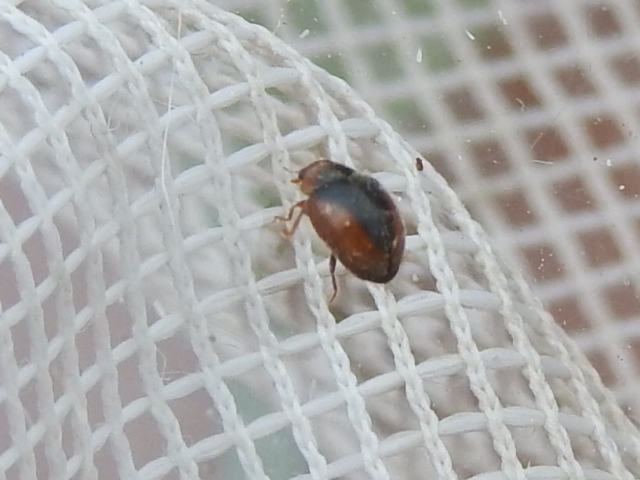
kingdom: Animalia
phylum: Arthropoda
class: Insecta
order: Coleoptera
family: Coccinellidae
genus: Scymnus
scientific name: Scymnus loewii
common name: Dusky lady beetle
